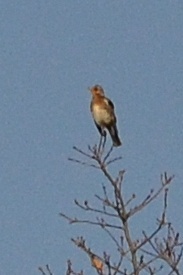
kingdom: Animalia
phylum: Chordata
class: Aves
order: Passeriformes
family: Turdidae
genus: Turdus
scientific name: Turdus pilaris
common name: Fieldfare
